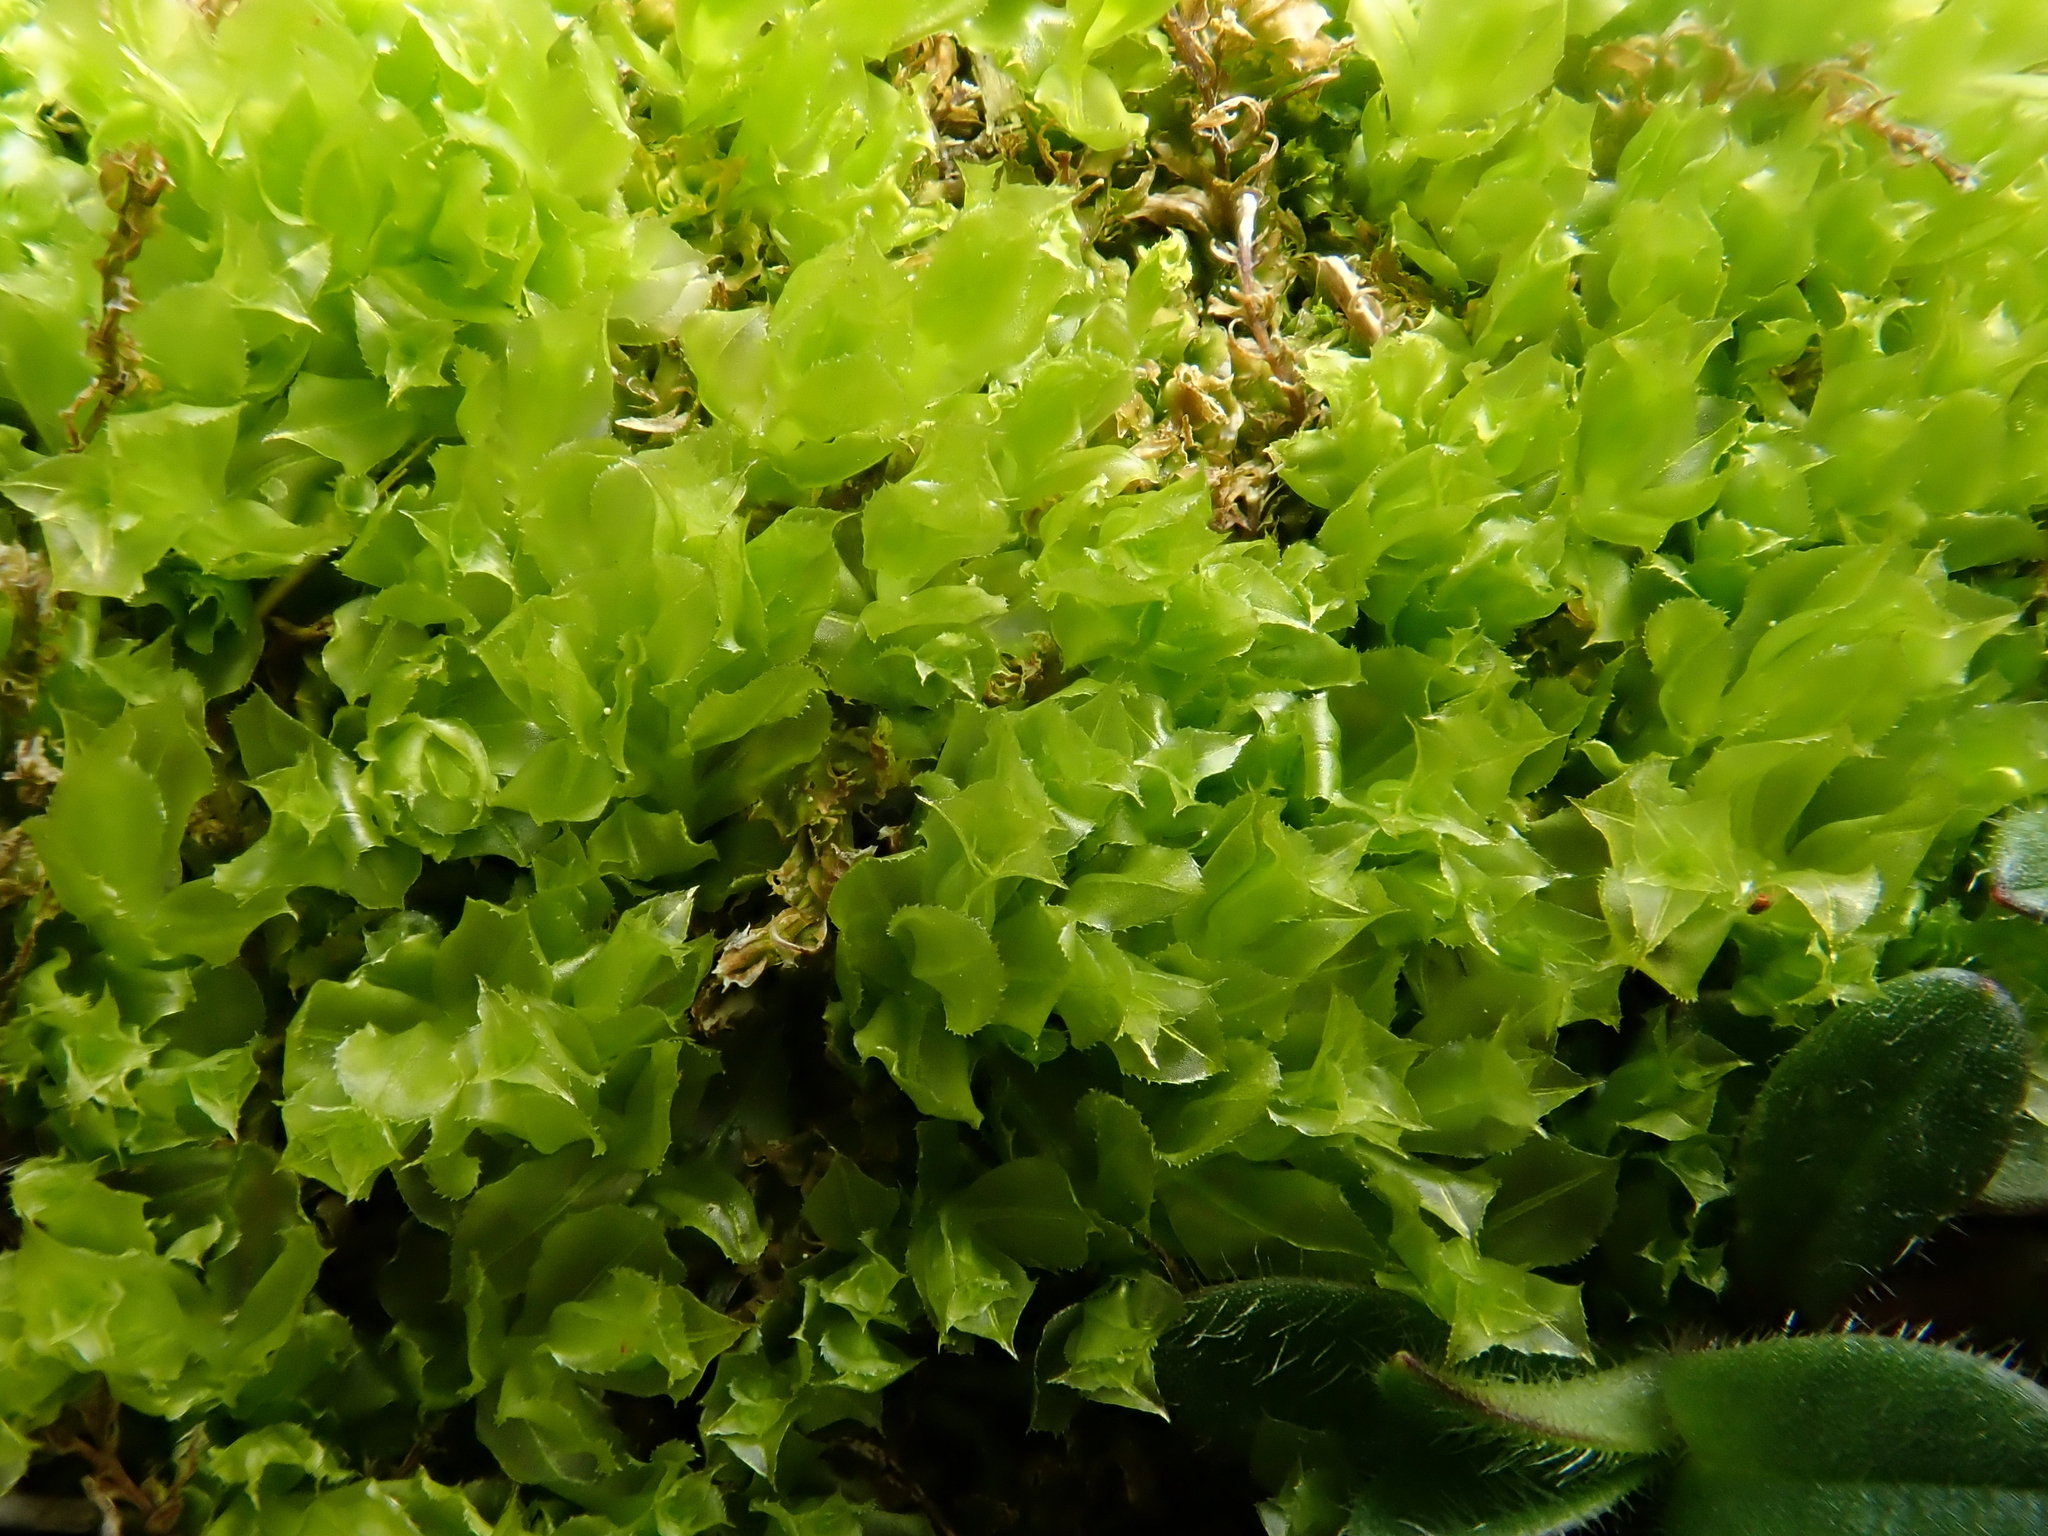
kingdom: Plantae
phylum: Bryophyta
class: Bryopsida
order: Bryales
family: Mniaceae
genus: Plagiomnium
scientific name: Plagiomnium cuspidatum
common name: Woodsy leafy moss
